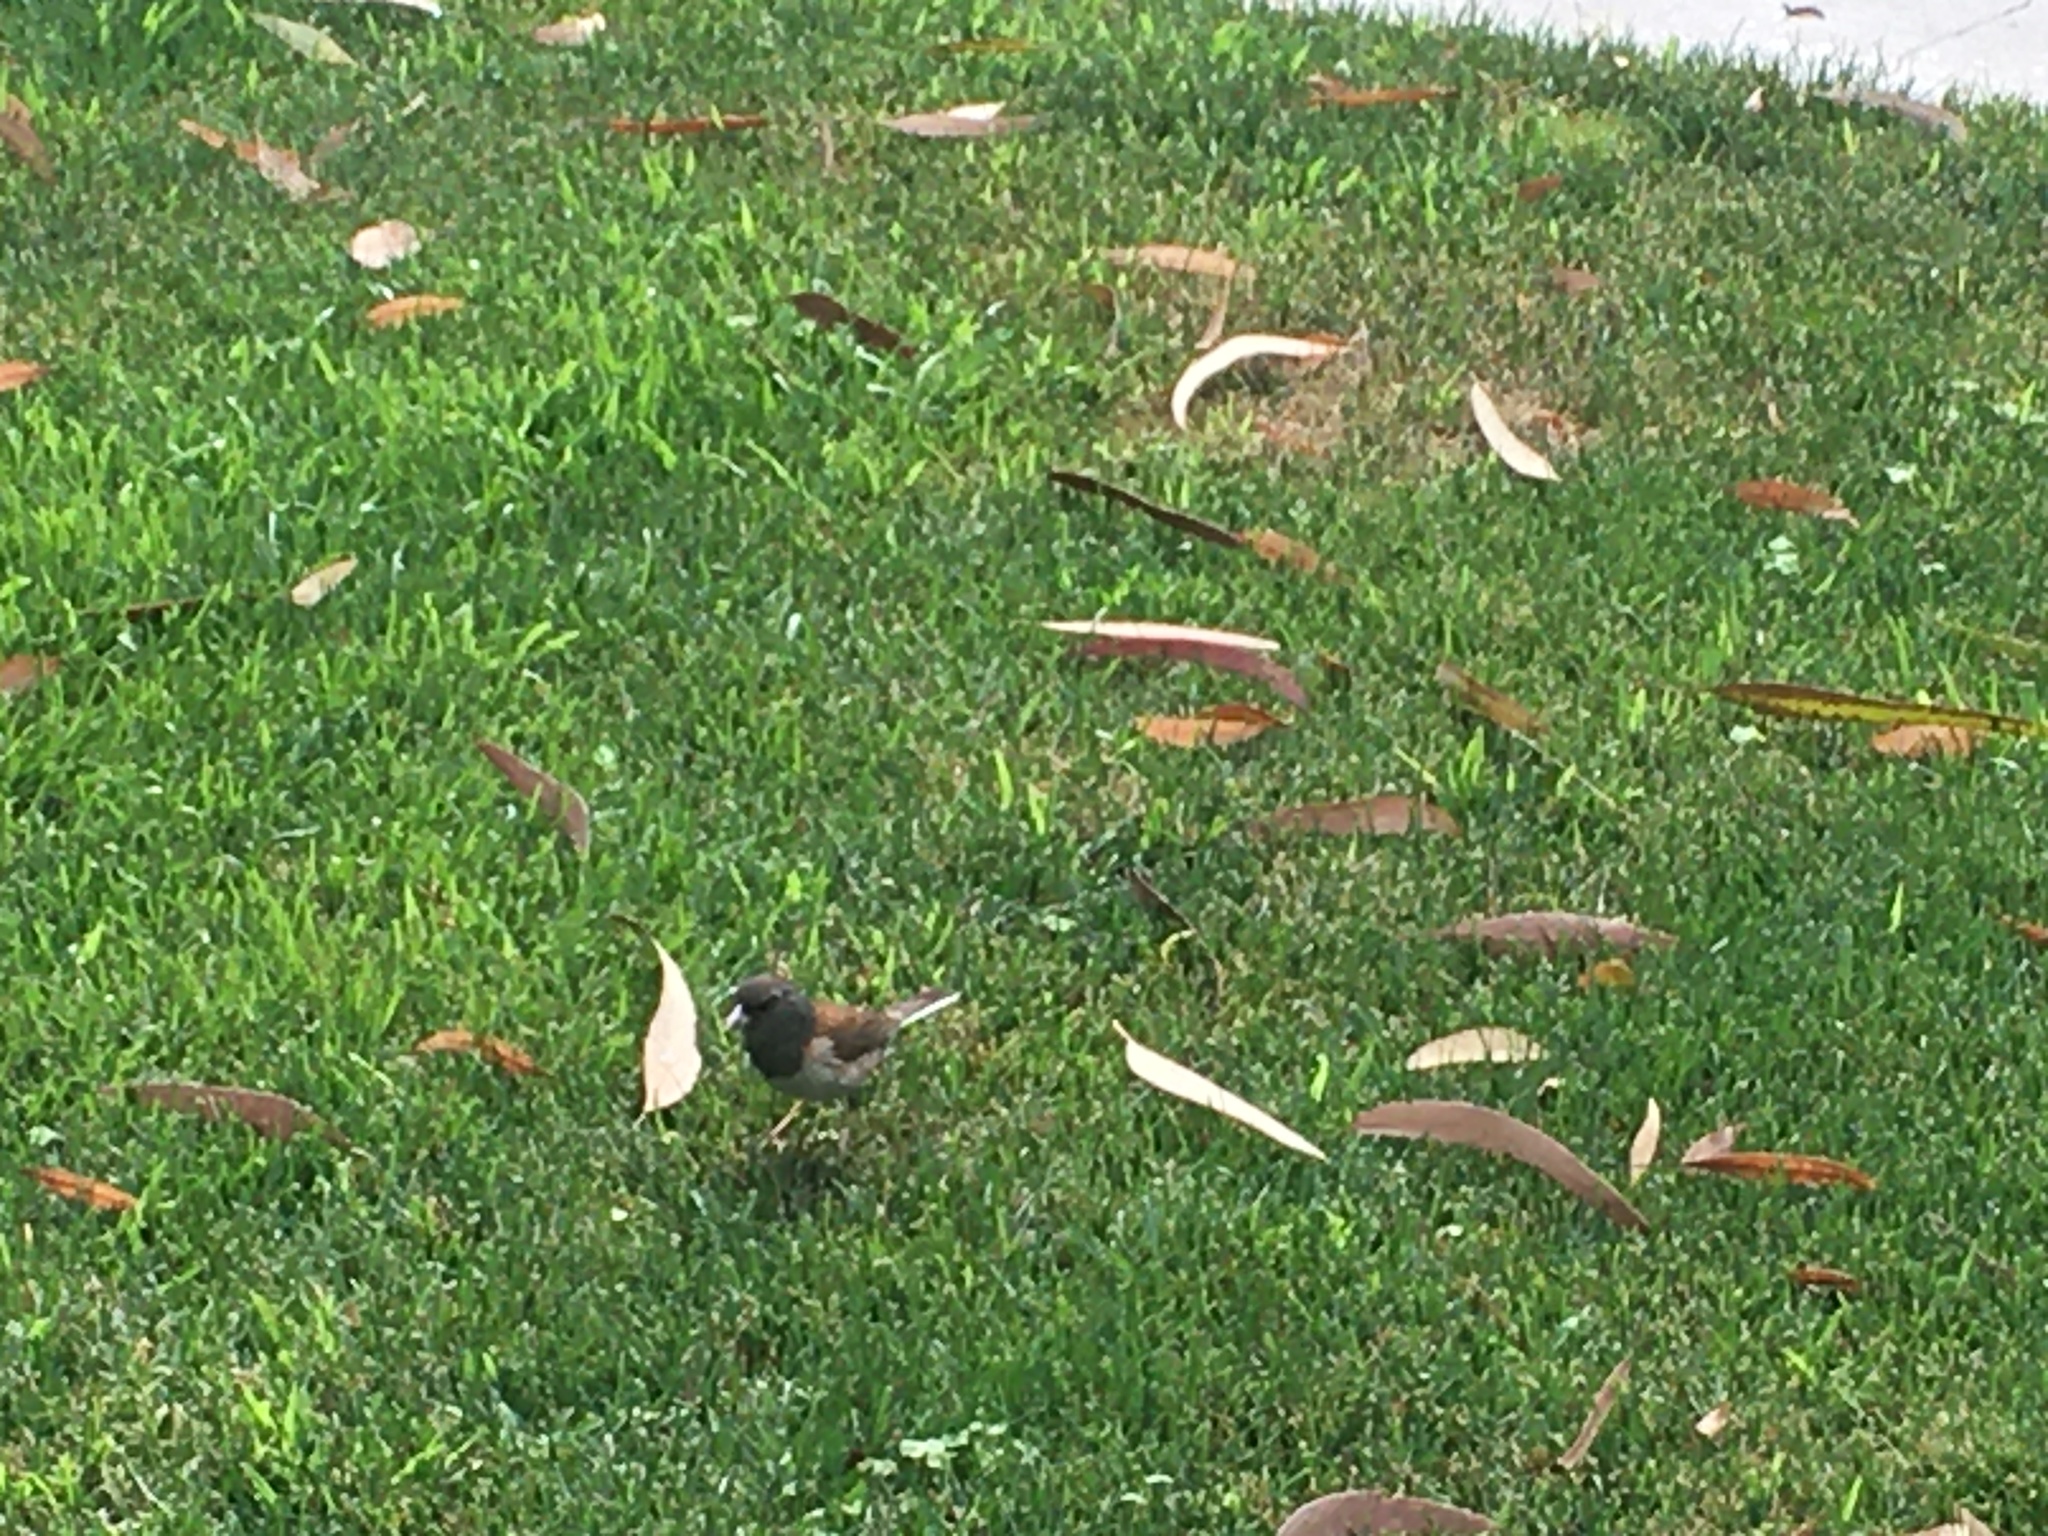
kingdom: Animalia
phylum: Chordata
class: Aves
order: Passeriformes
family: Passerellidae
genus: Junco
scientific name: Junco hyemalis
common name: Dark-eyed junco
